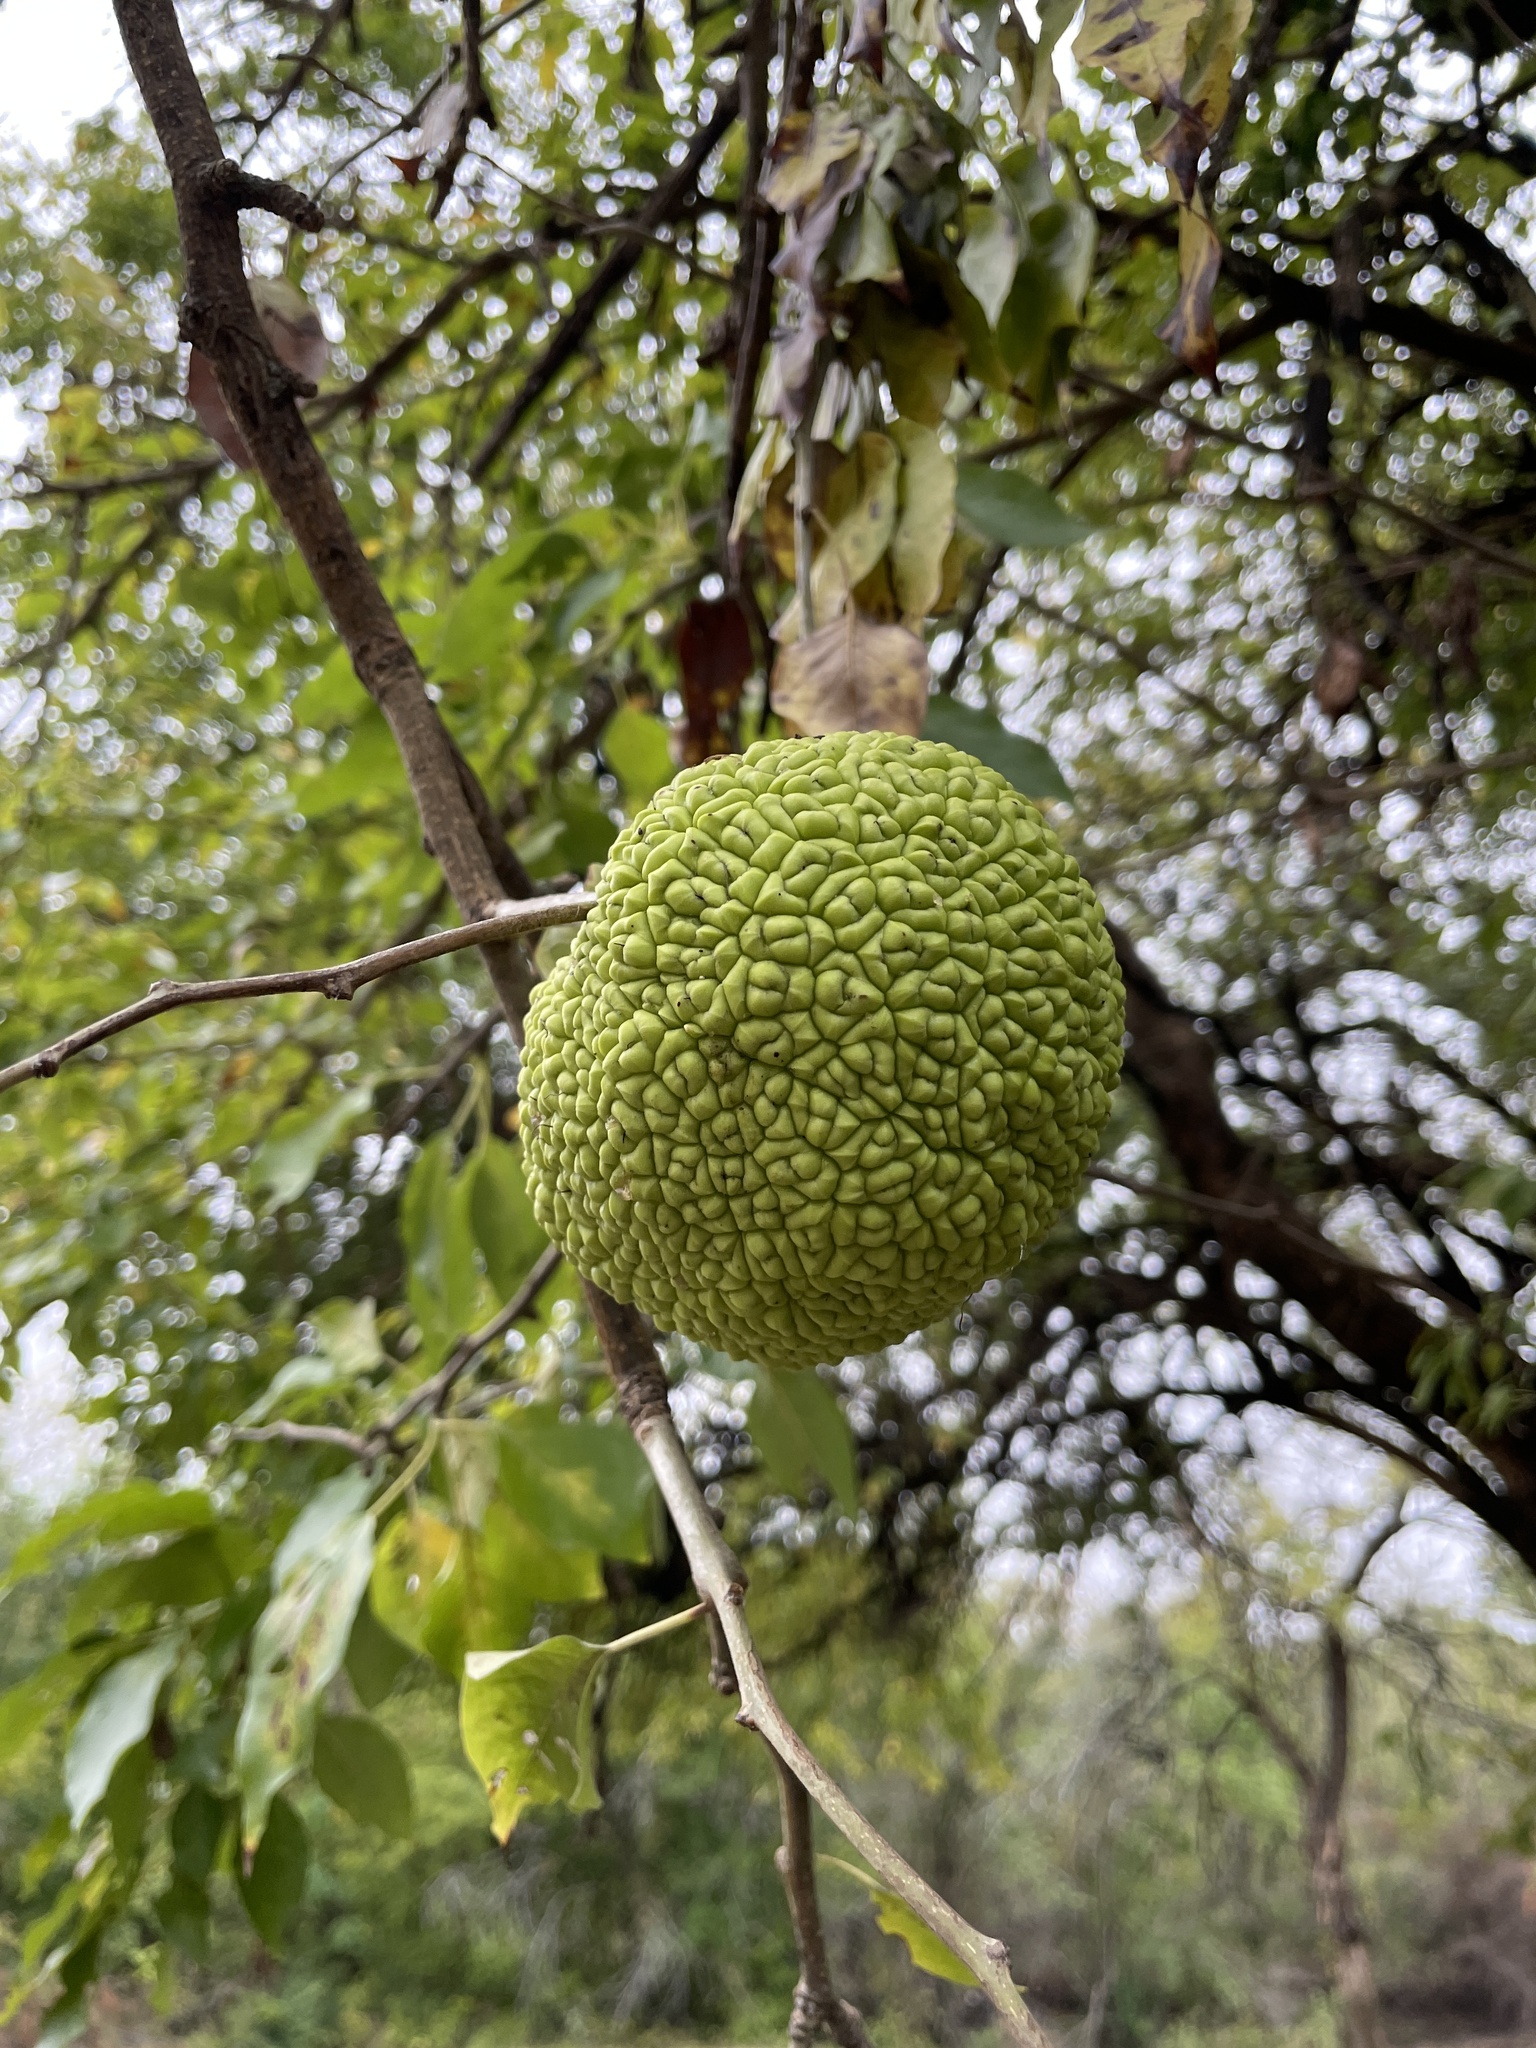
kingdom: Plantae
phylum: Tracheophyta
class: Magnoliopsida
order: Rosales
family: Moraceae
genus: Maclura
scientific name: Maclura pomifera
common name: Osage-orange
